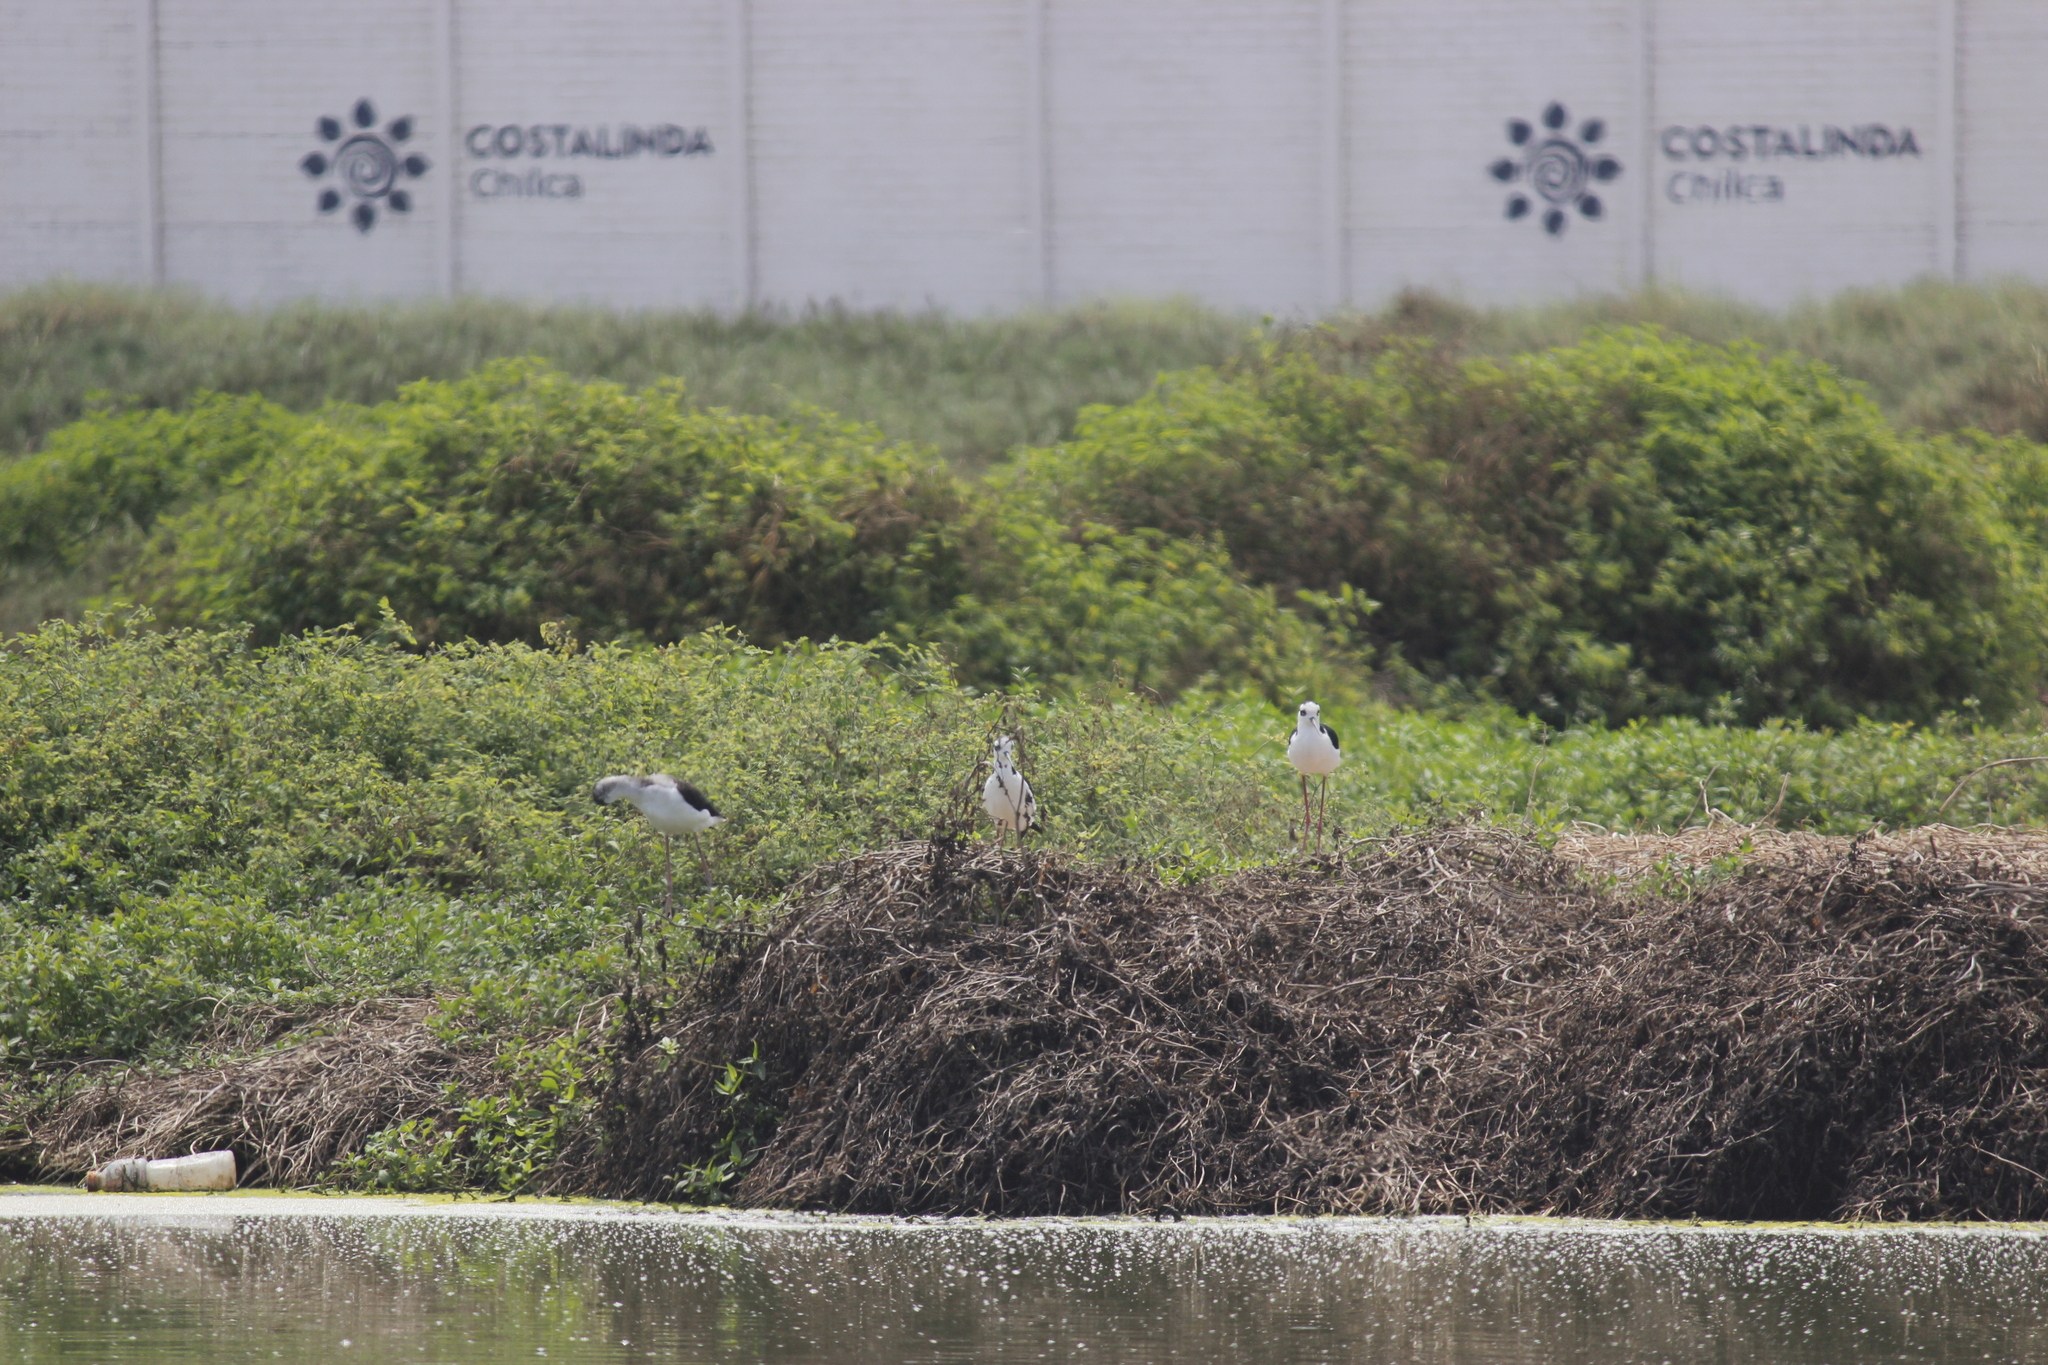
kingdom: Animalia
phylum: Chordata
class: Aves
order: Charadriiformes
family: Recurvirostridae
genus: Himantopus
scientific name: Himantopus mexicanus
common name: Black-necked stilt
